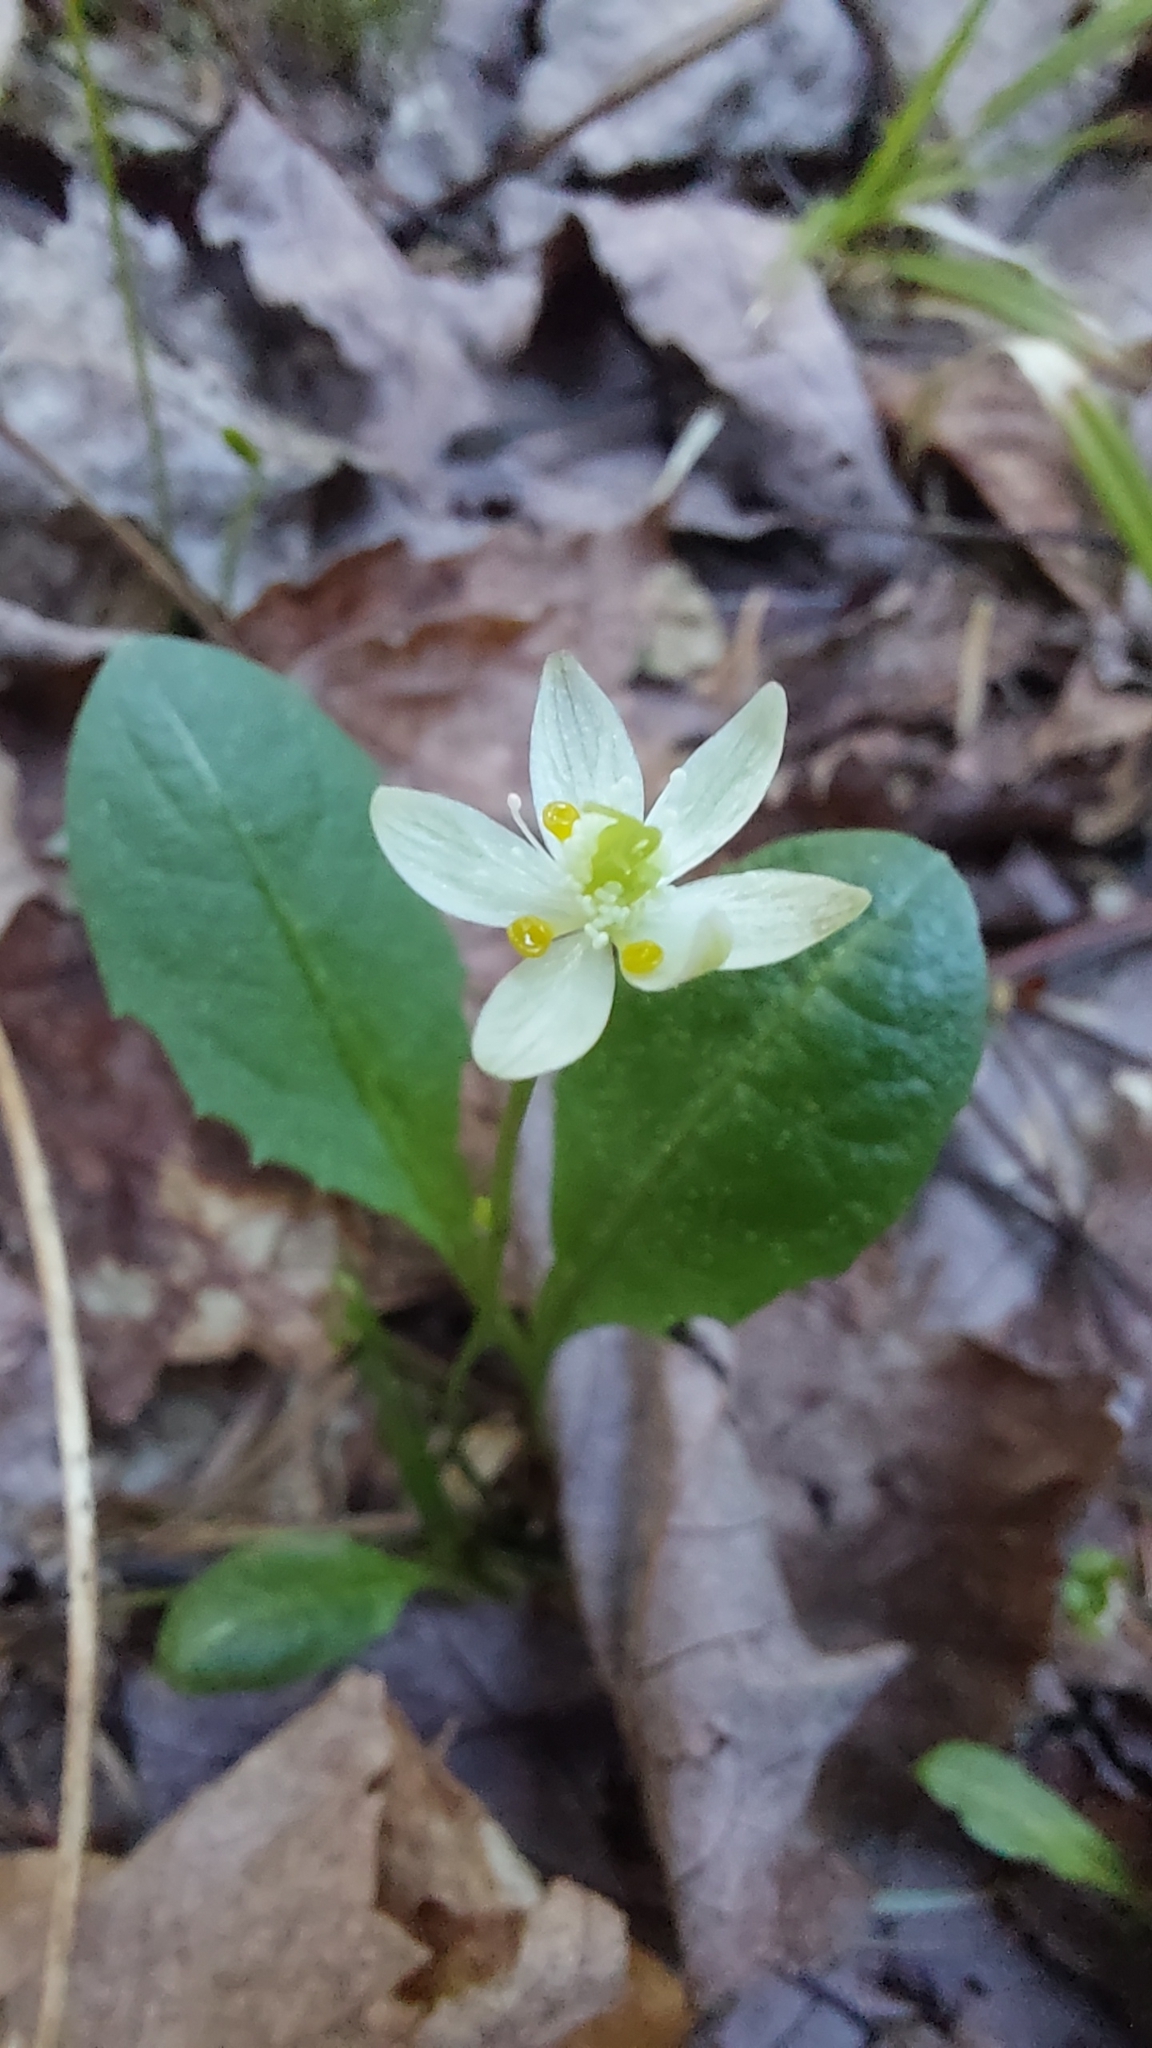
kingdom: Plantae
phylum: Tracheophyta
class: Magnoliopsida
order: Ranunculales
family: Ranunculaceae
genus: Coptis
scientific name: Coptis trifolia
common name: Canker-root
